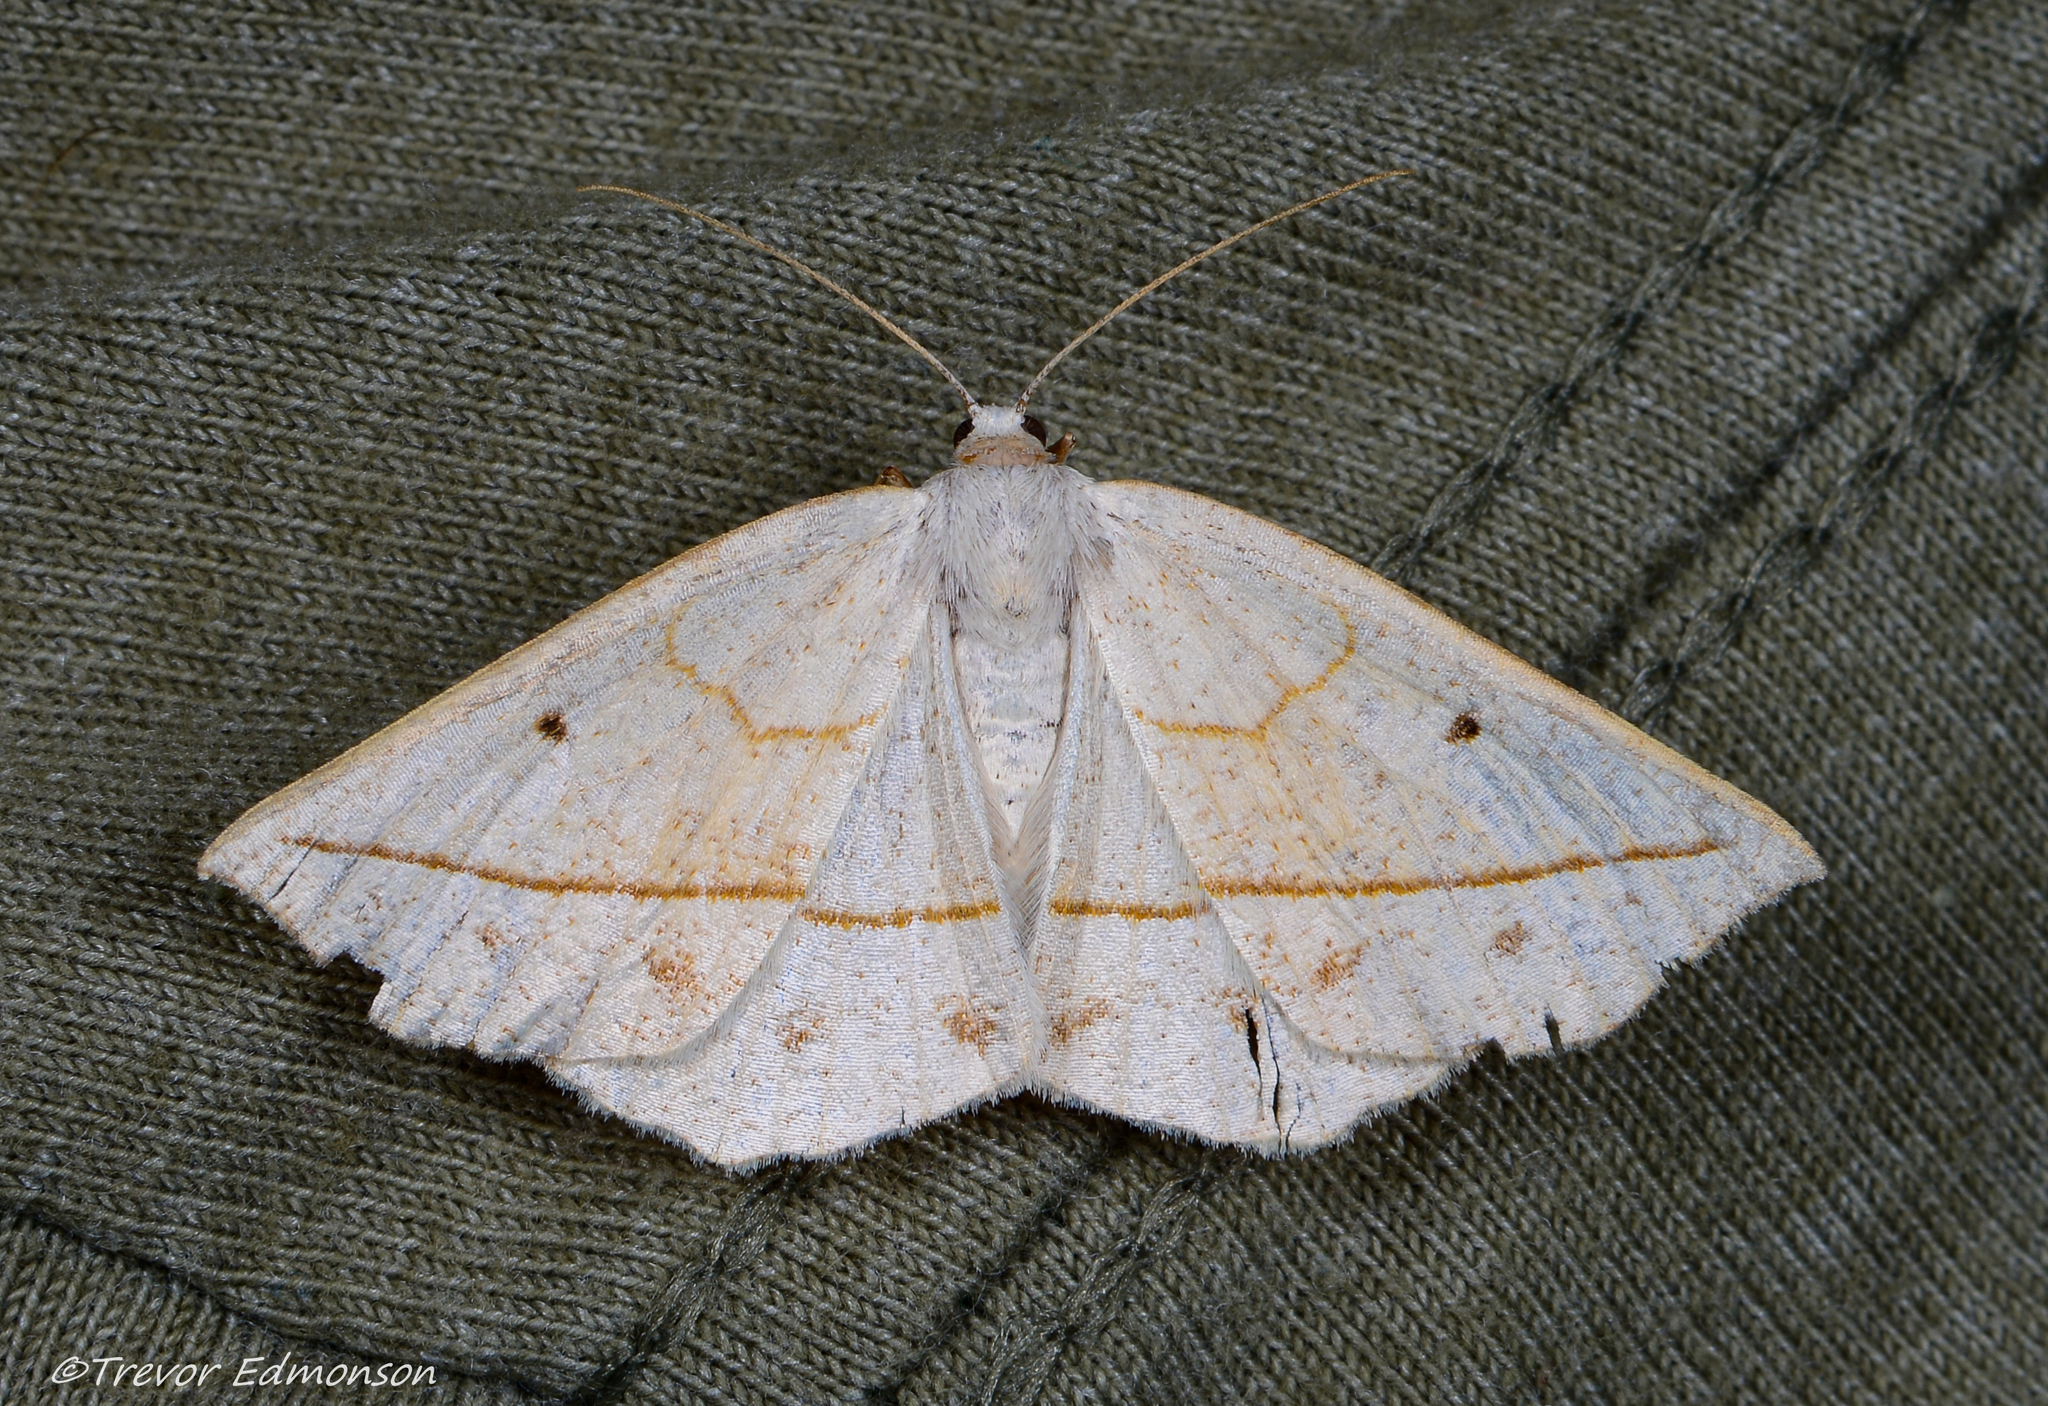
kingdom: Animalia
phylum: Arthropoda
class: Insecta
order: Lepidoptera
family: Geometridae
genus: Eusarca
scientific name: Eusarca confusaria
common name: Confused eusarca
